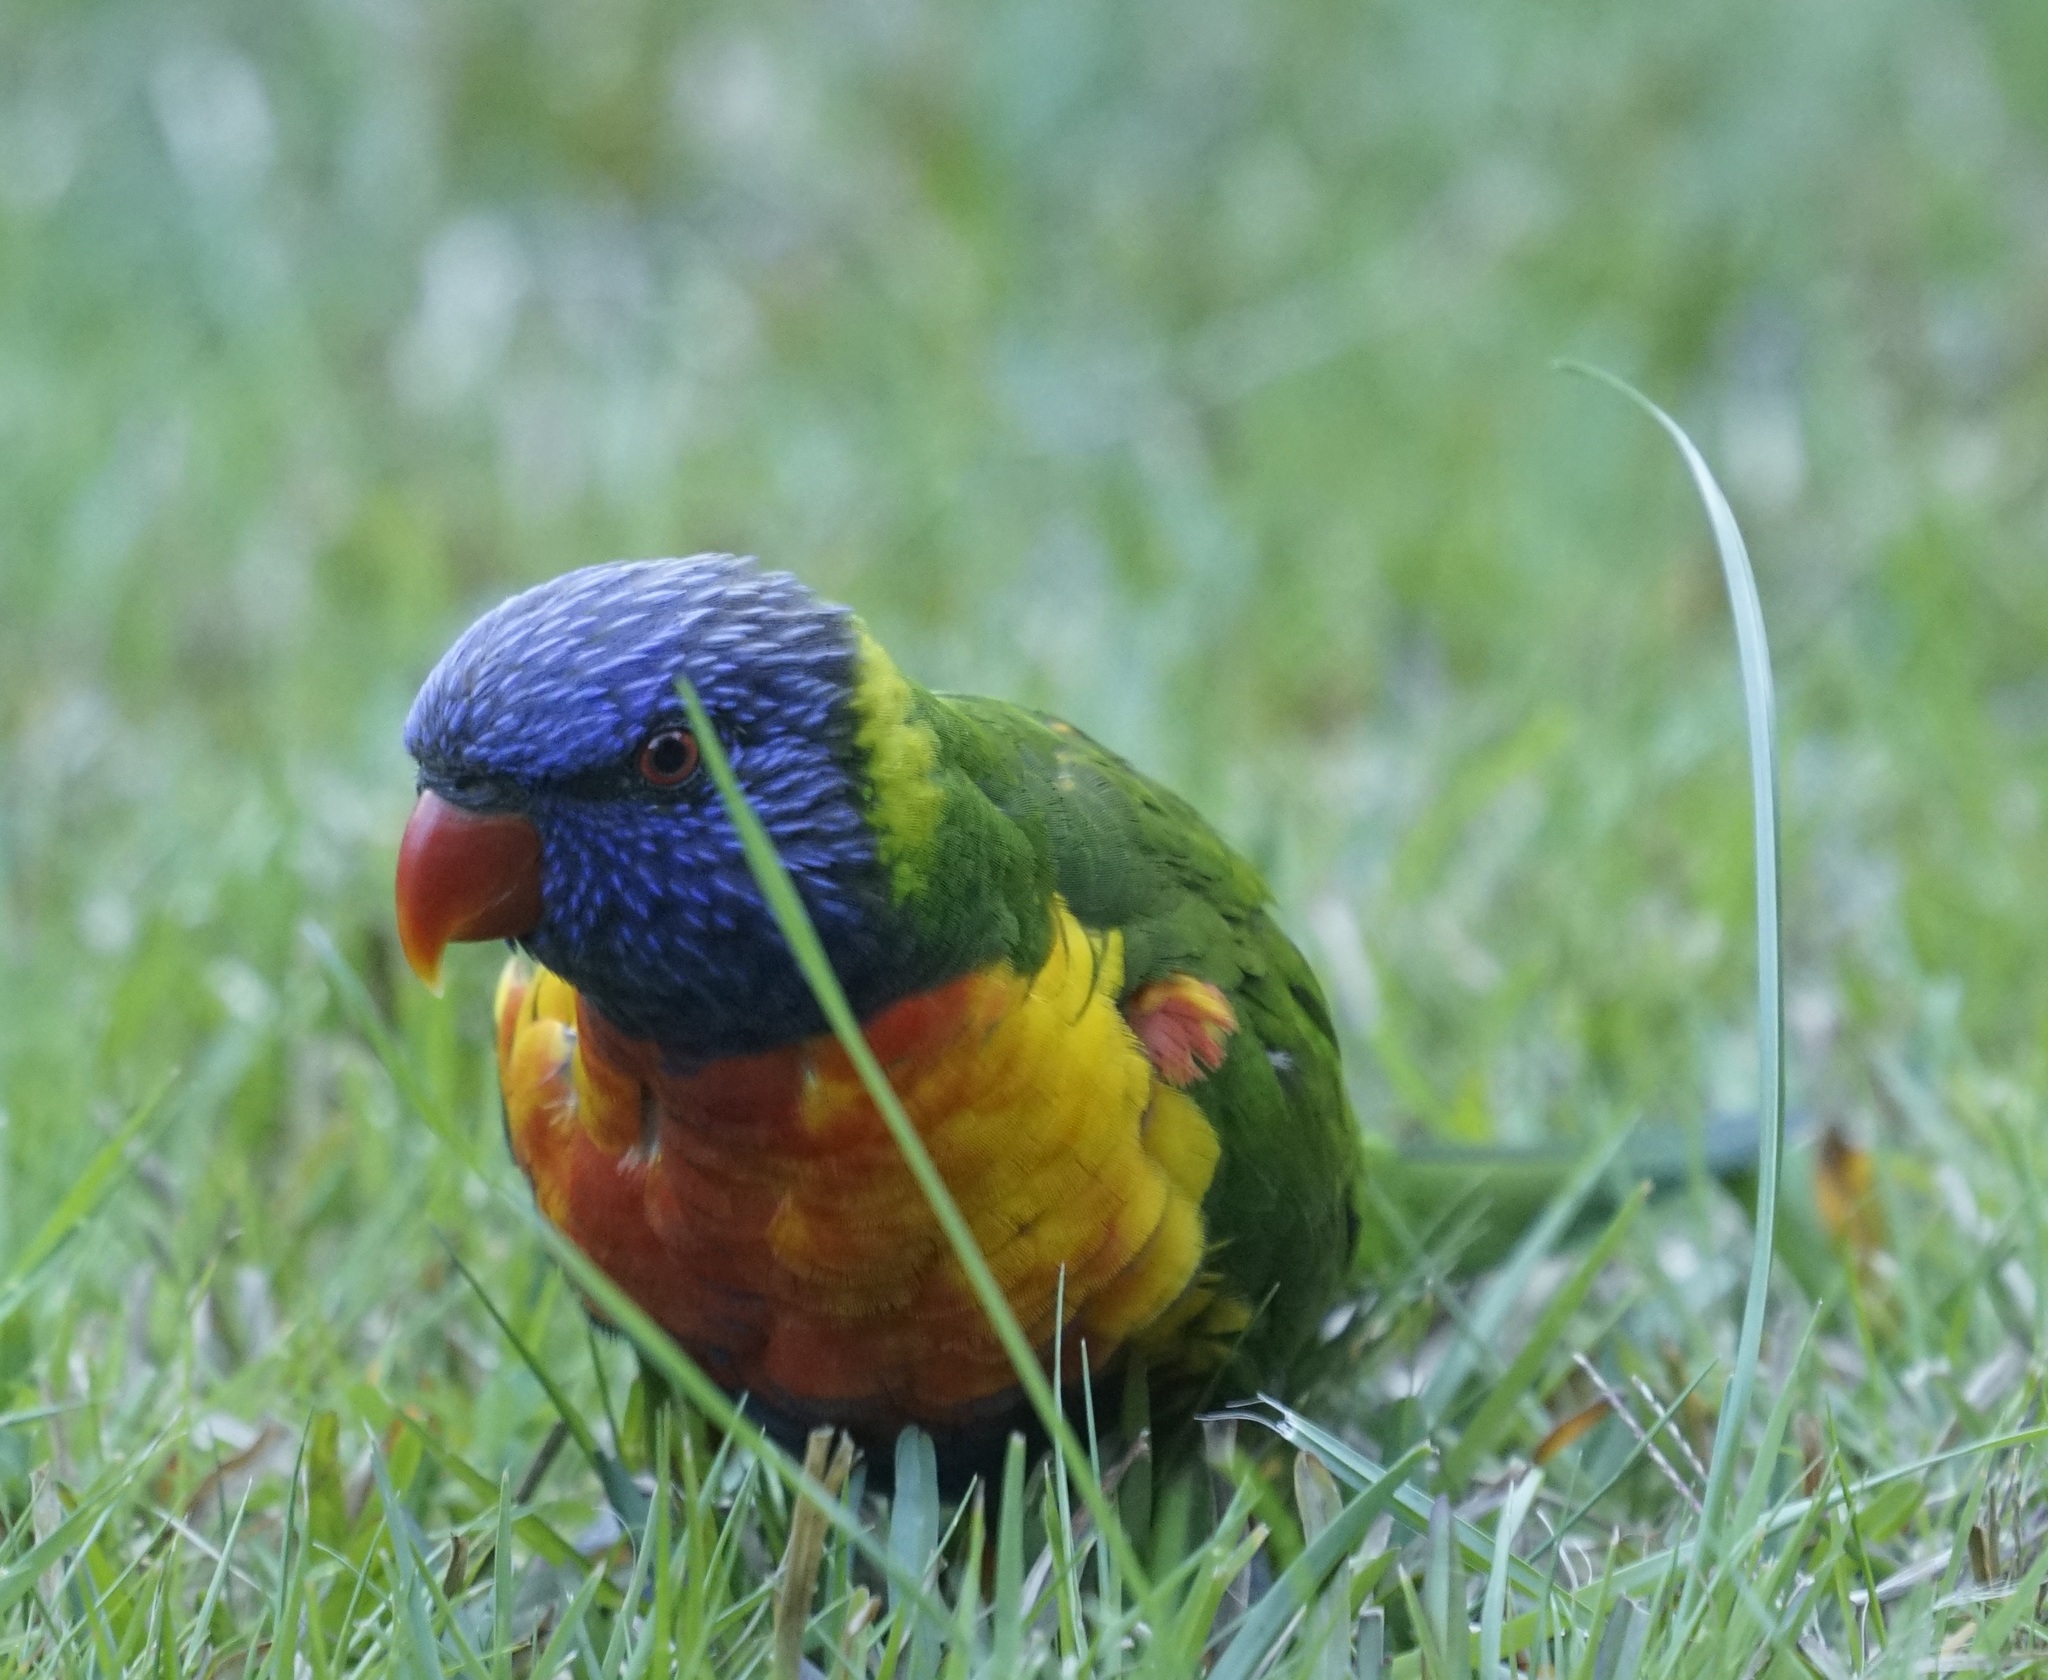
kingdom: Animalia
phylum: Chordata
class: Aves
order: Psittaciformes
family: Psittacidae
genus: Trichoglossus
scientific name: Trichoglossus haematodus
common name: Coconut lorikeet
